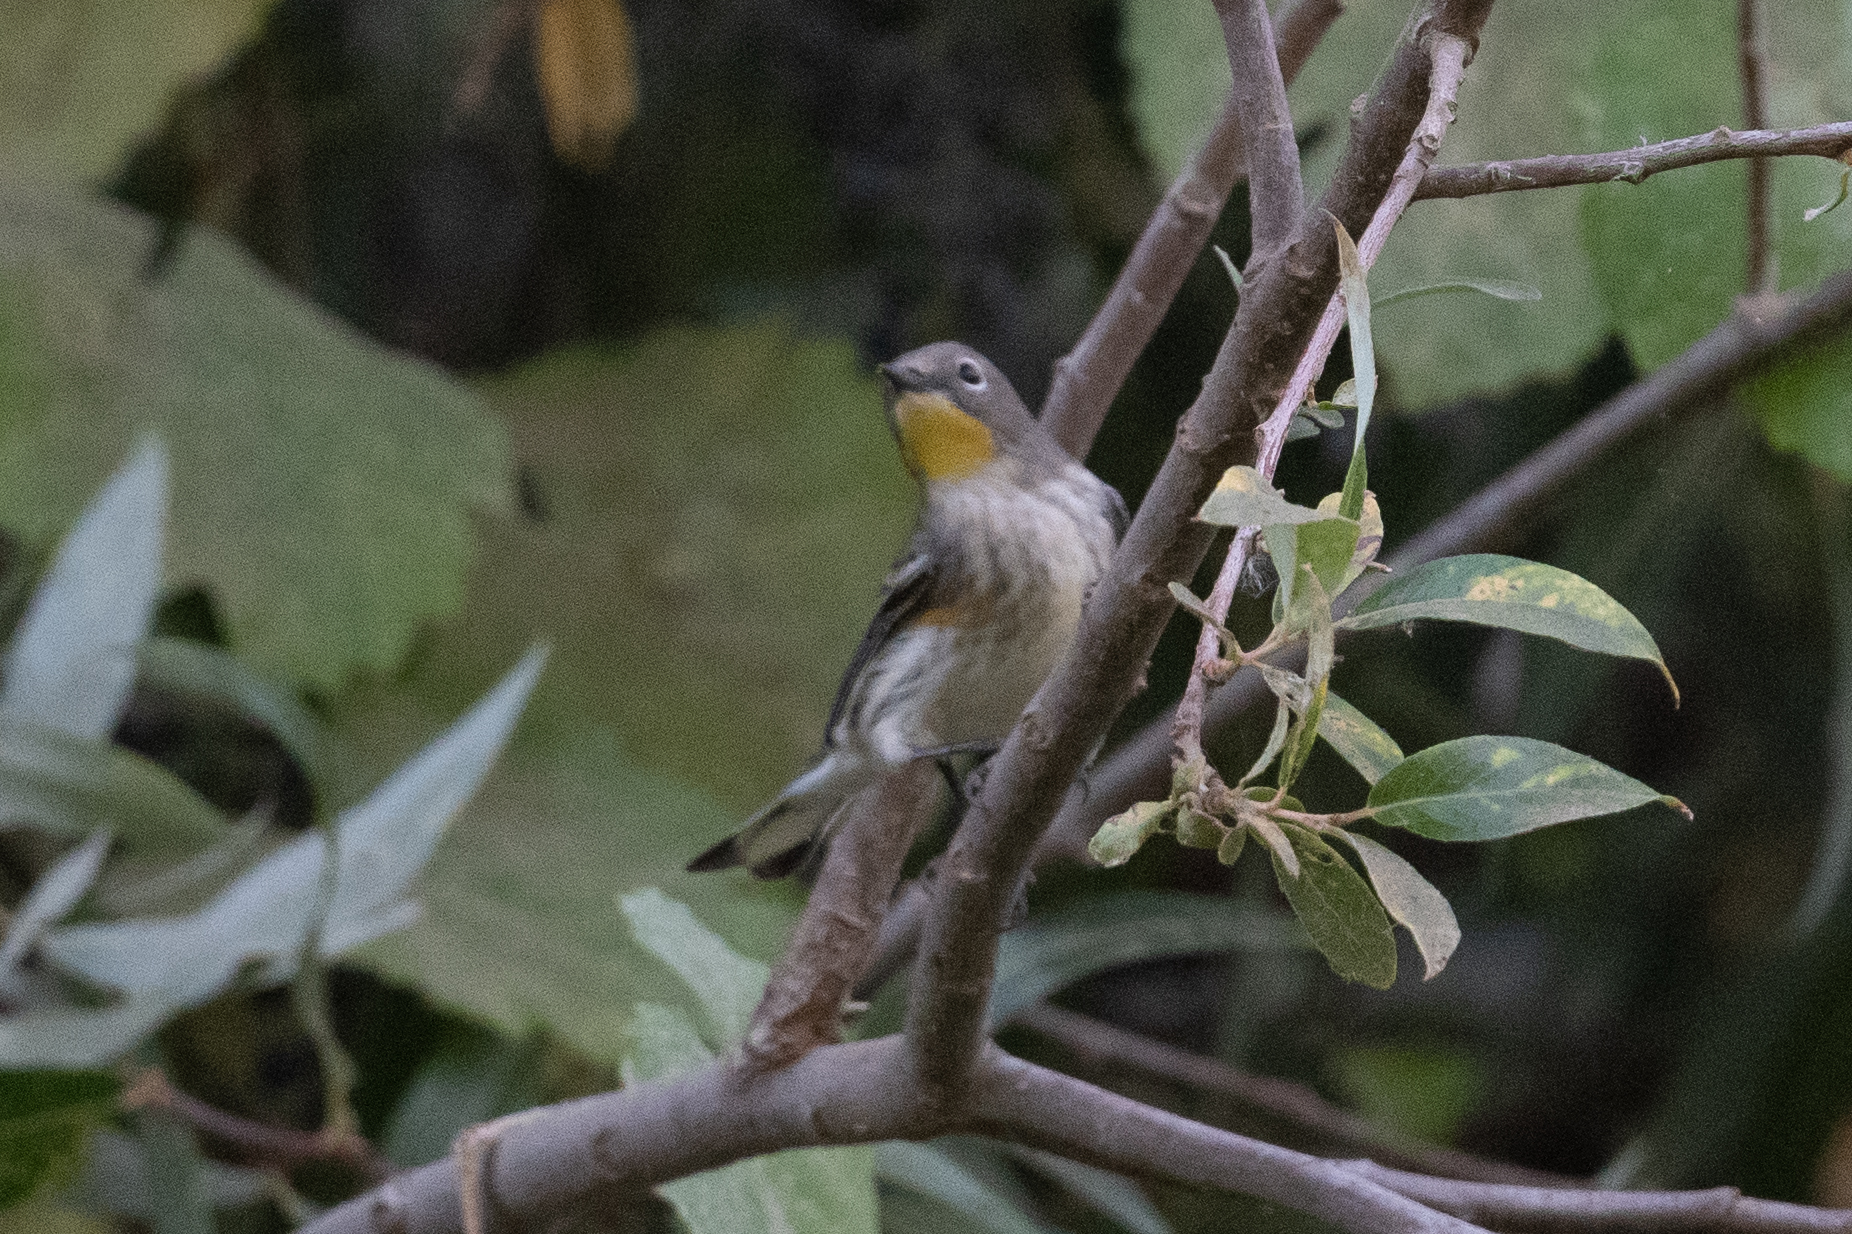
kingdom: Animalia
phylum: Chordata
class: Aves
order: Passeriformes
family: Parulidae
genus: Setophaga
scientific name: Setophaga coronata
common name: Myrtle warbler
